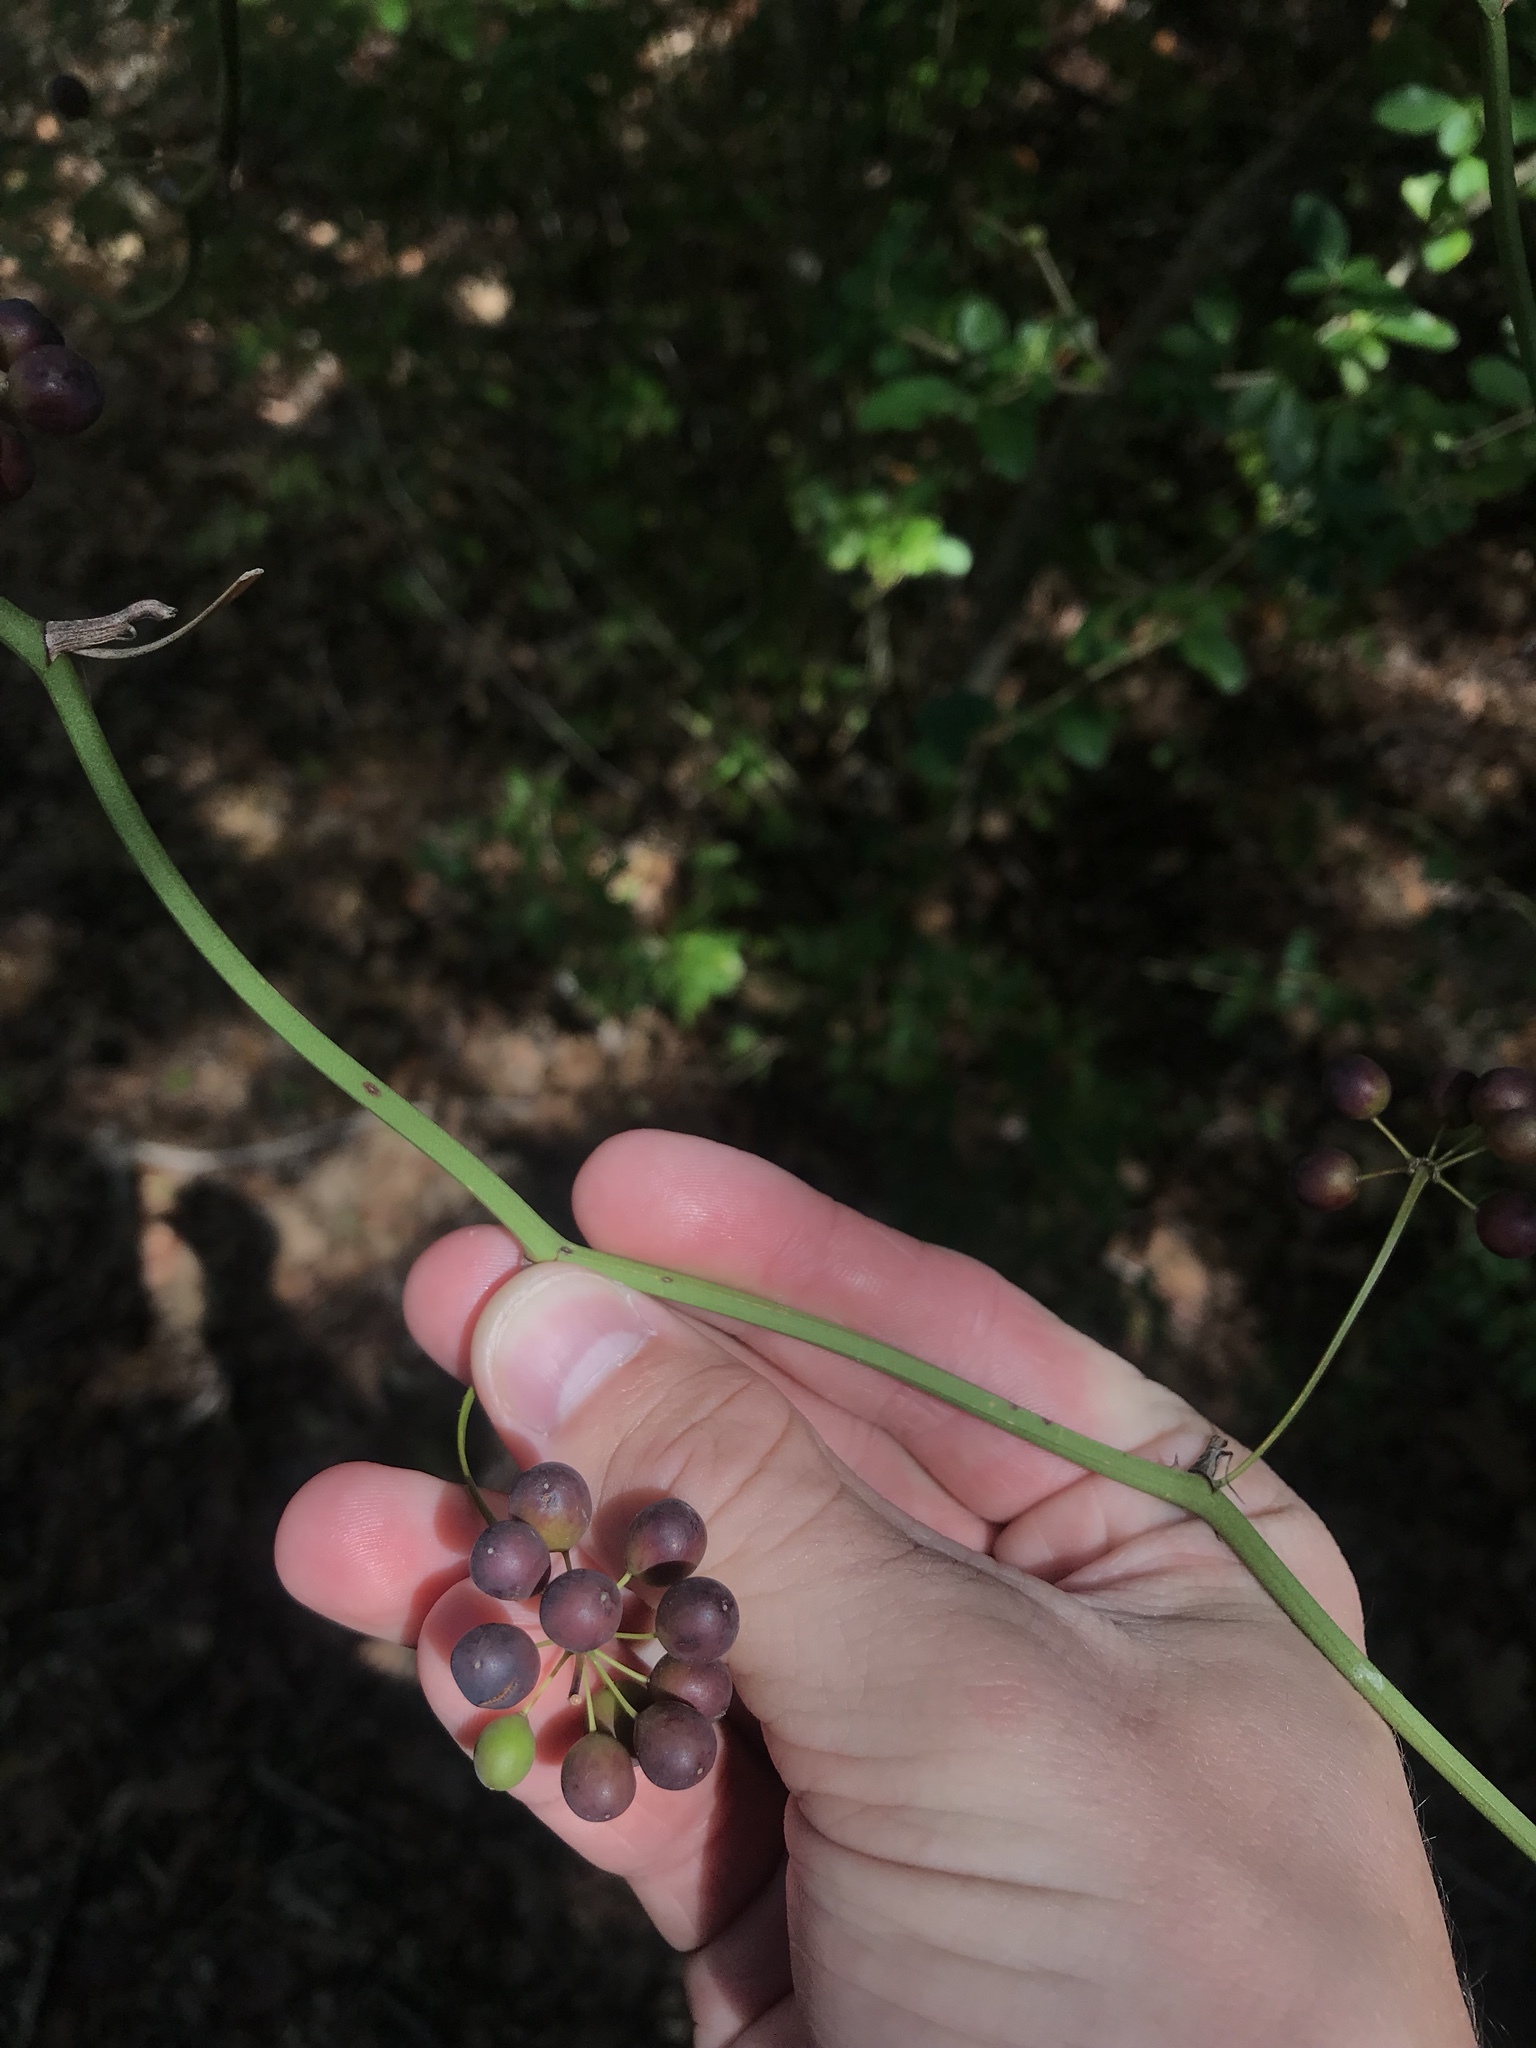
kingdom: Plantae
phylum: Tracheophyta
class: Liliopsida
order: Liliales
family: Smilacaceae
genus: Smilax
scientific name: Smilax bona-nox
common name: Catbrier
